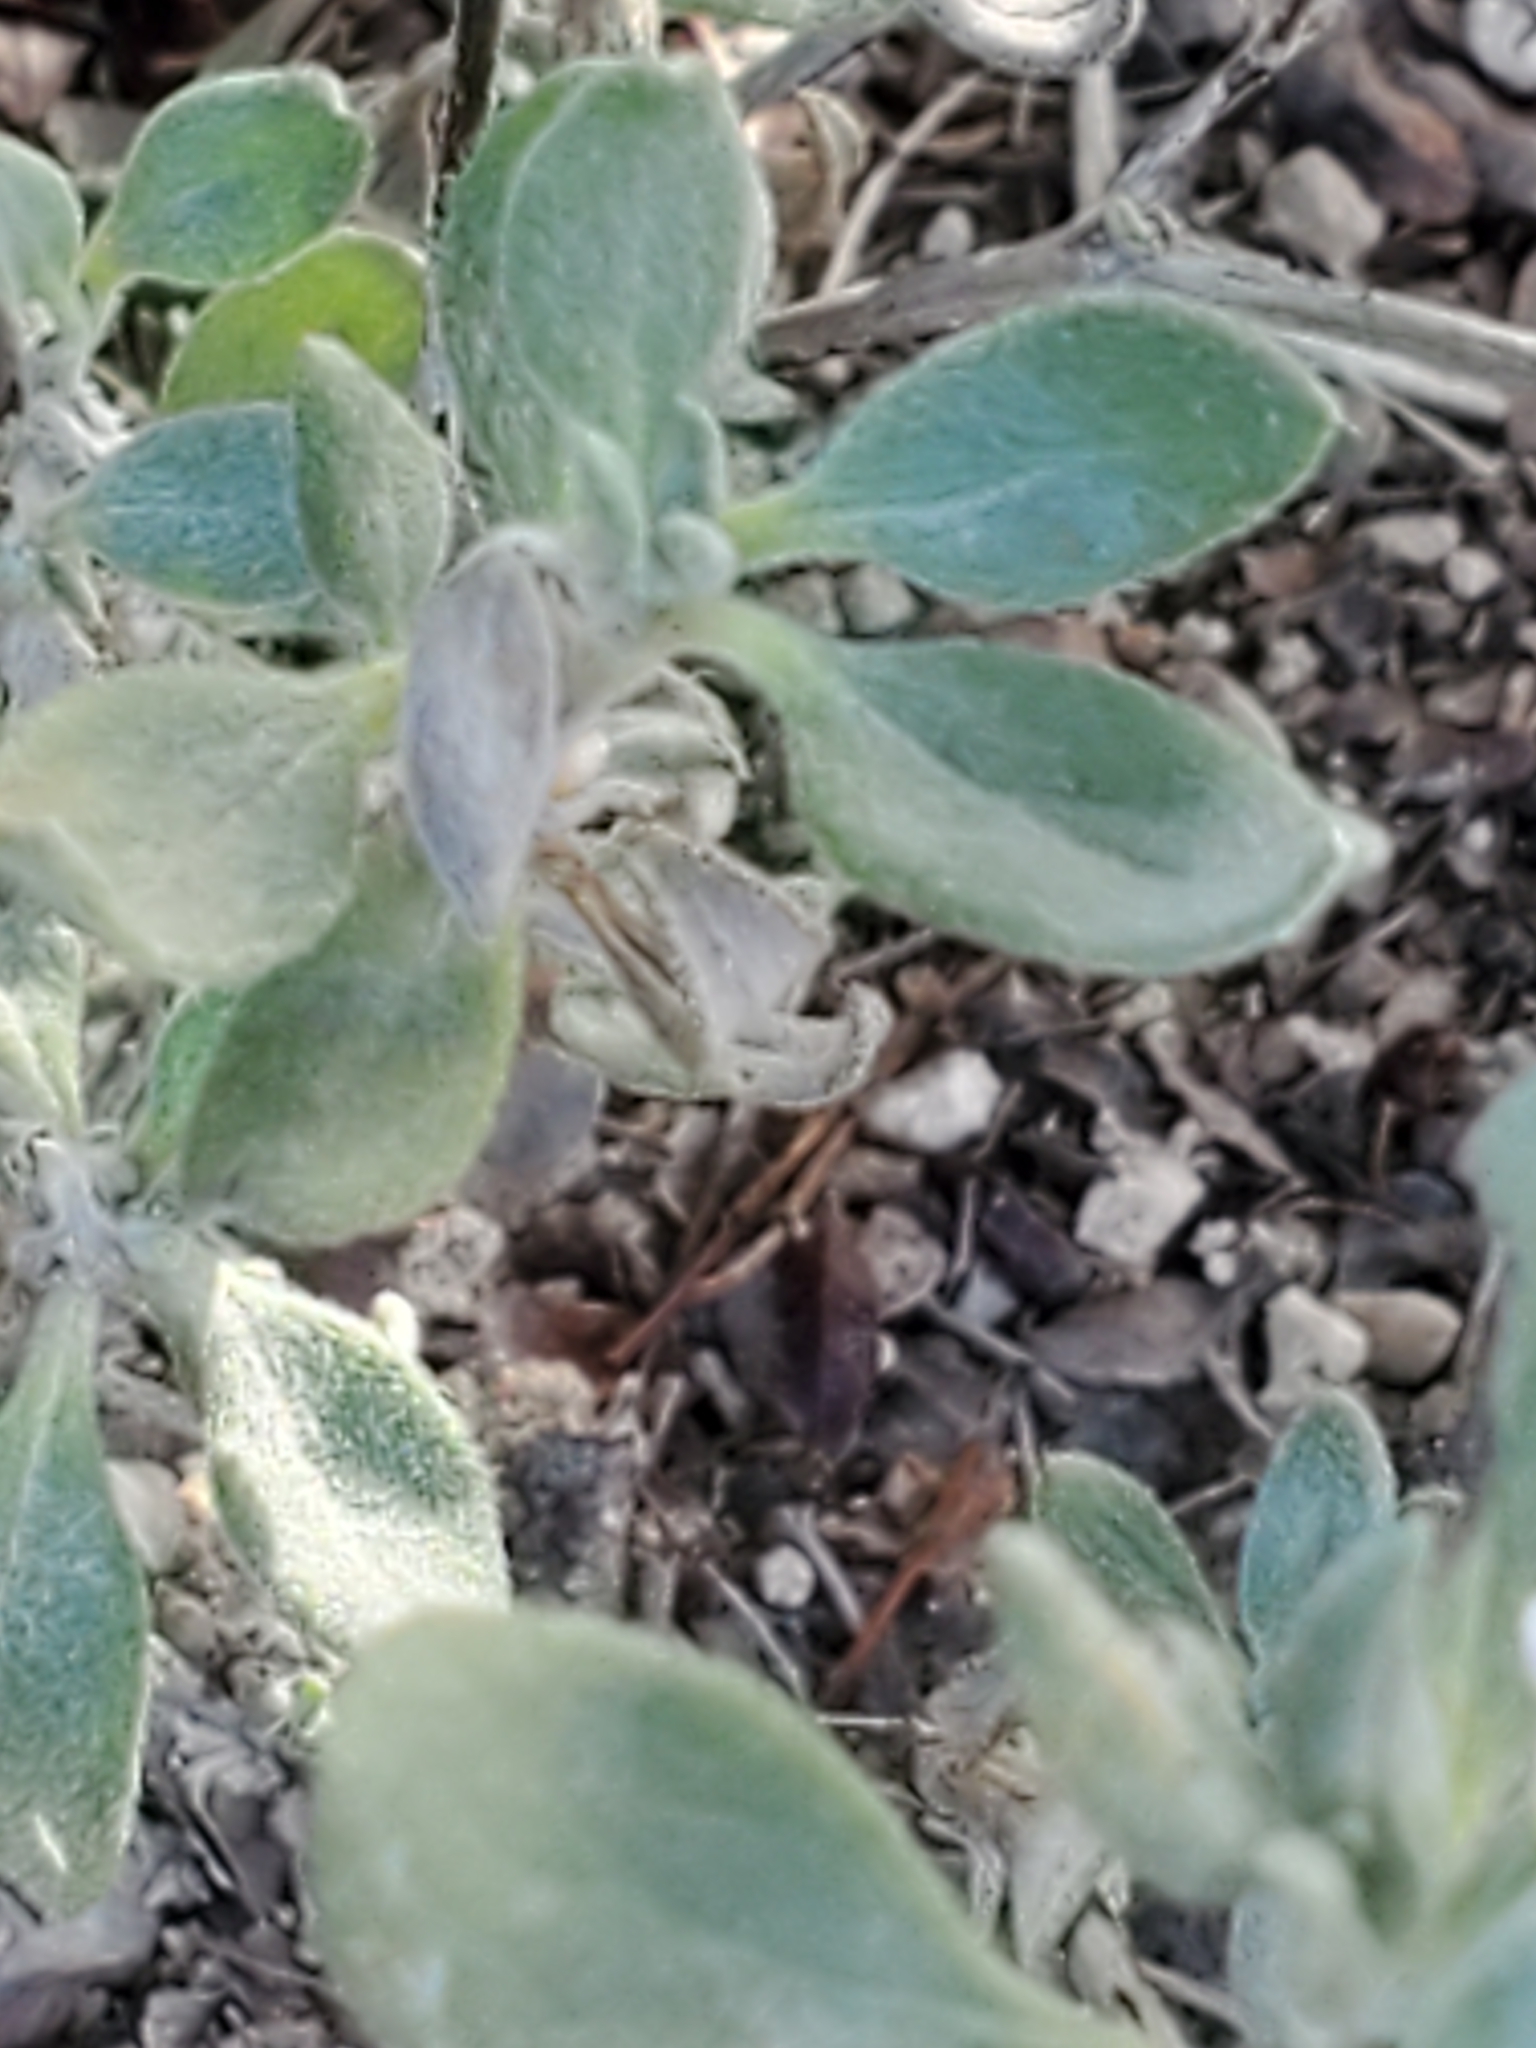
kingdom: Plantae
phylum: Tracheophyta
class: Magnoliopsida
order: Boraginales
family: Ehretiaceae
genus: Tiquilia
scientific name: Tiquilia canescens
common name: Hairy tiquilia
